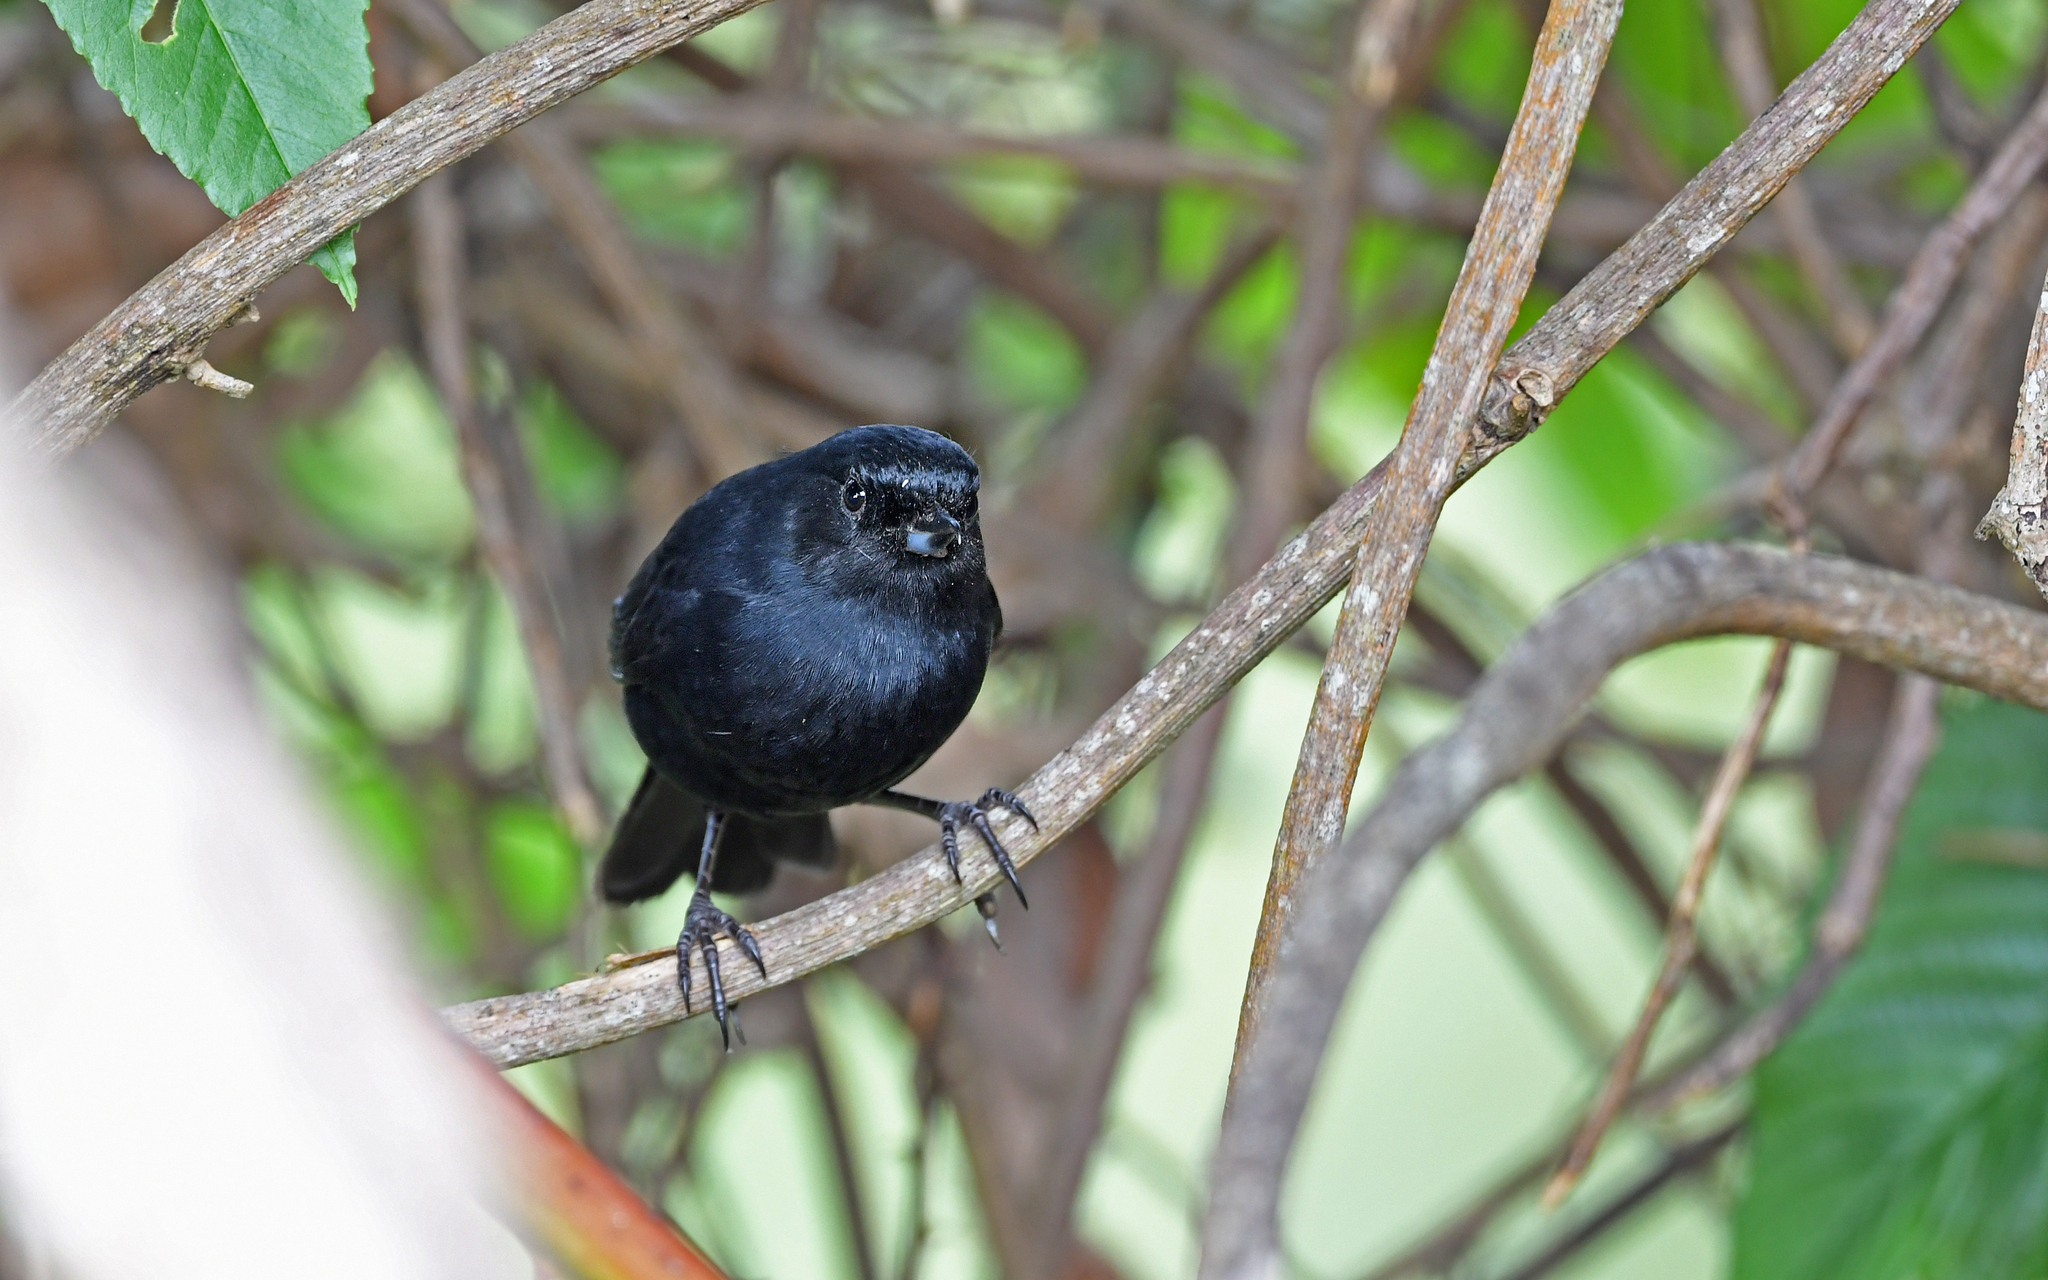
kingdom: Animalia
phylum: Chordata
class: Aves
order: Passeriformes
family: Thraupidae
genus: Diglossa
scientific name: Diglossa humeralis
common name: Black flowerpiercer
